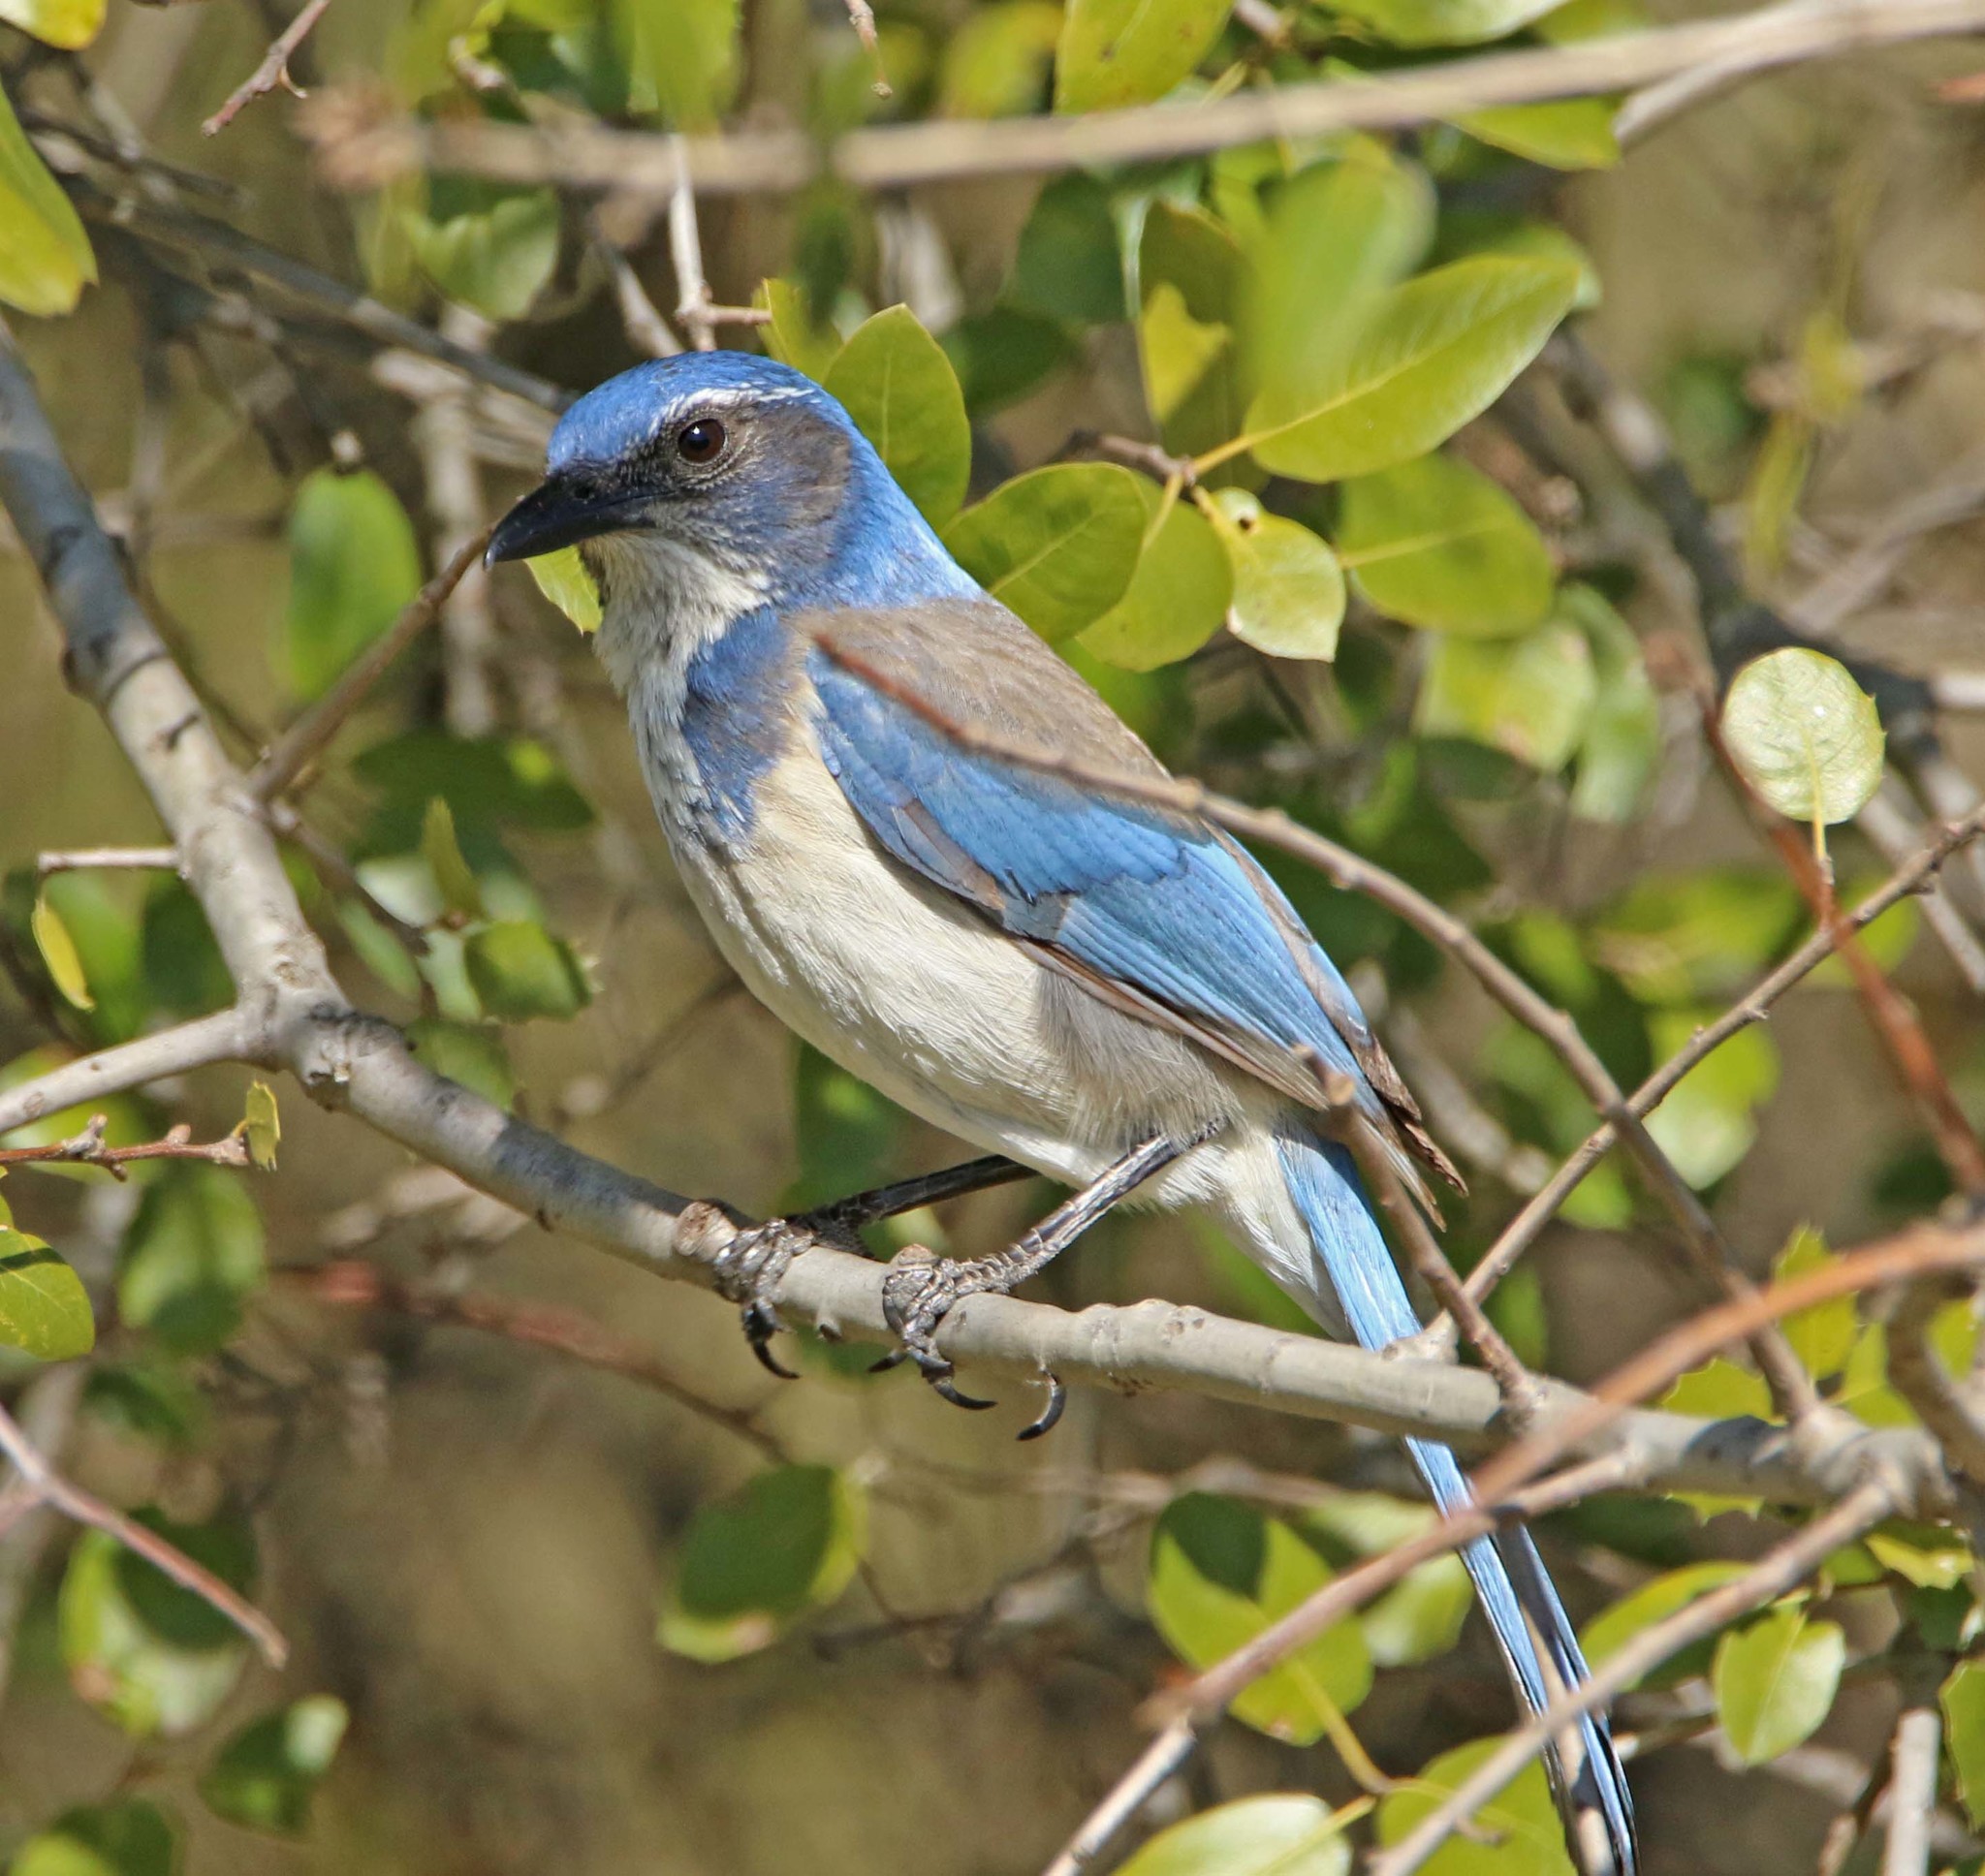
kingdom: Animalia
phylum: Chordata
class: Aves
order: Passeriformes
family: Corvidae
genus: Aphelocoma
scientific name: Aphelocoma californica
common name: California scrub-jay
